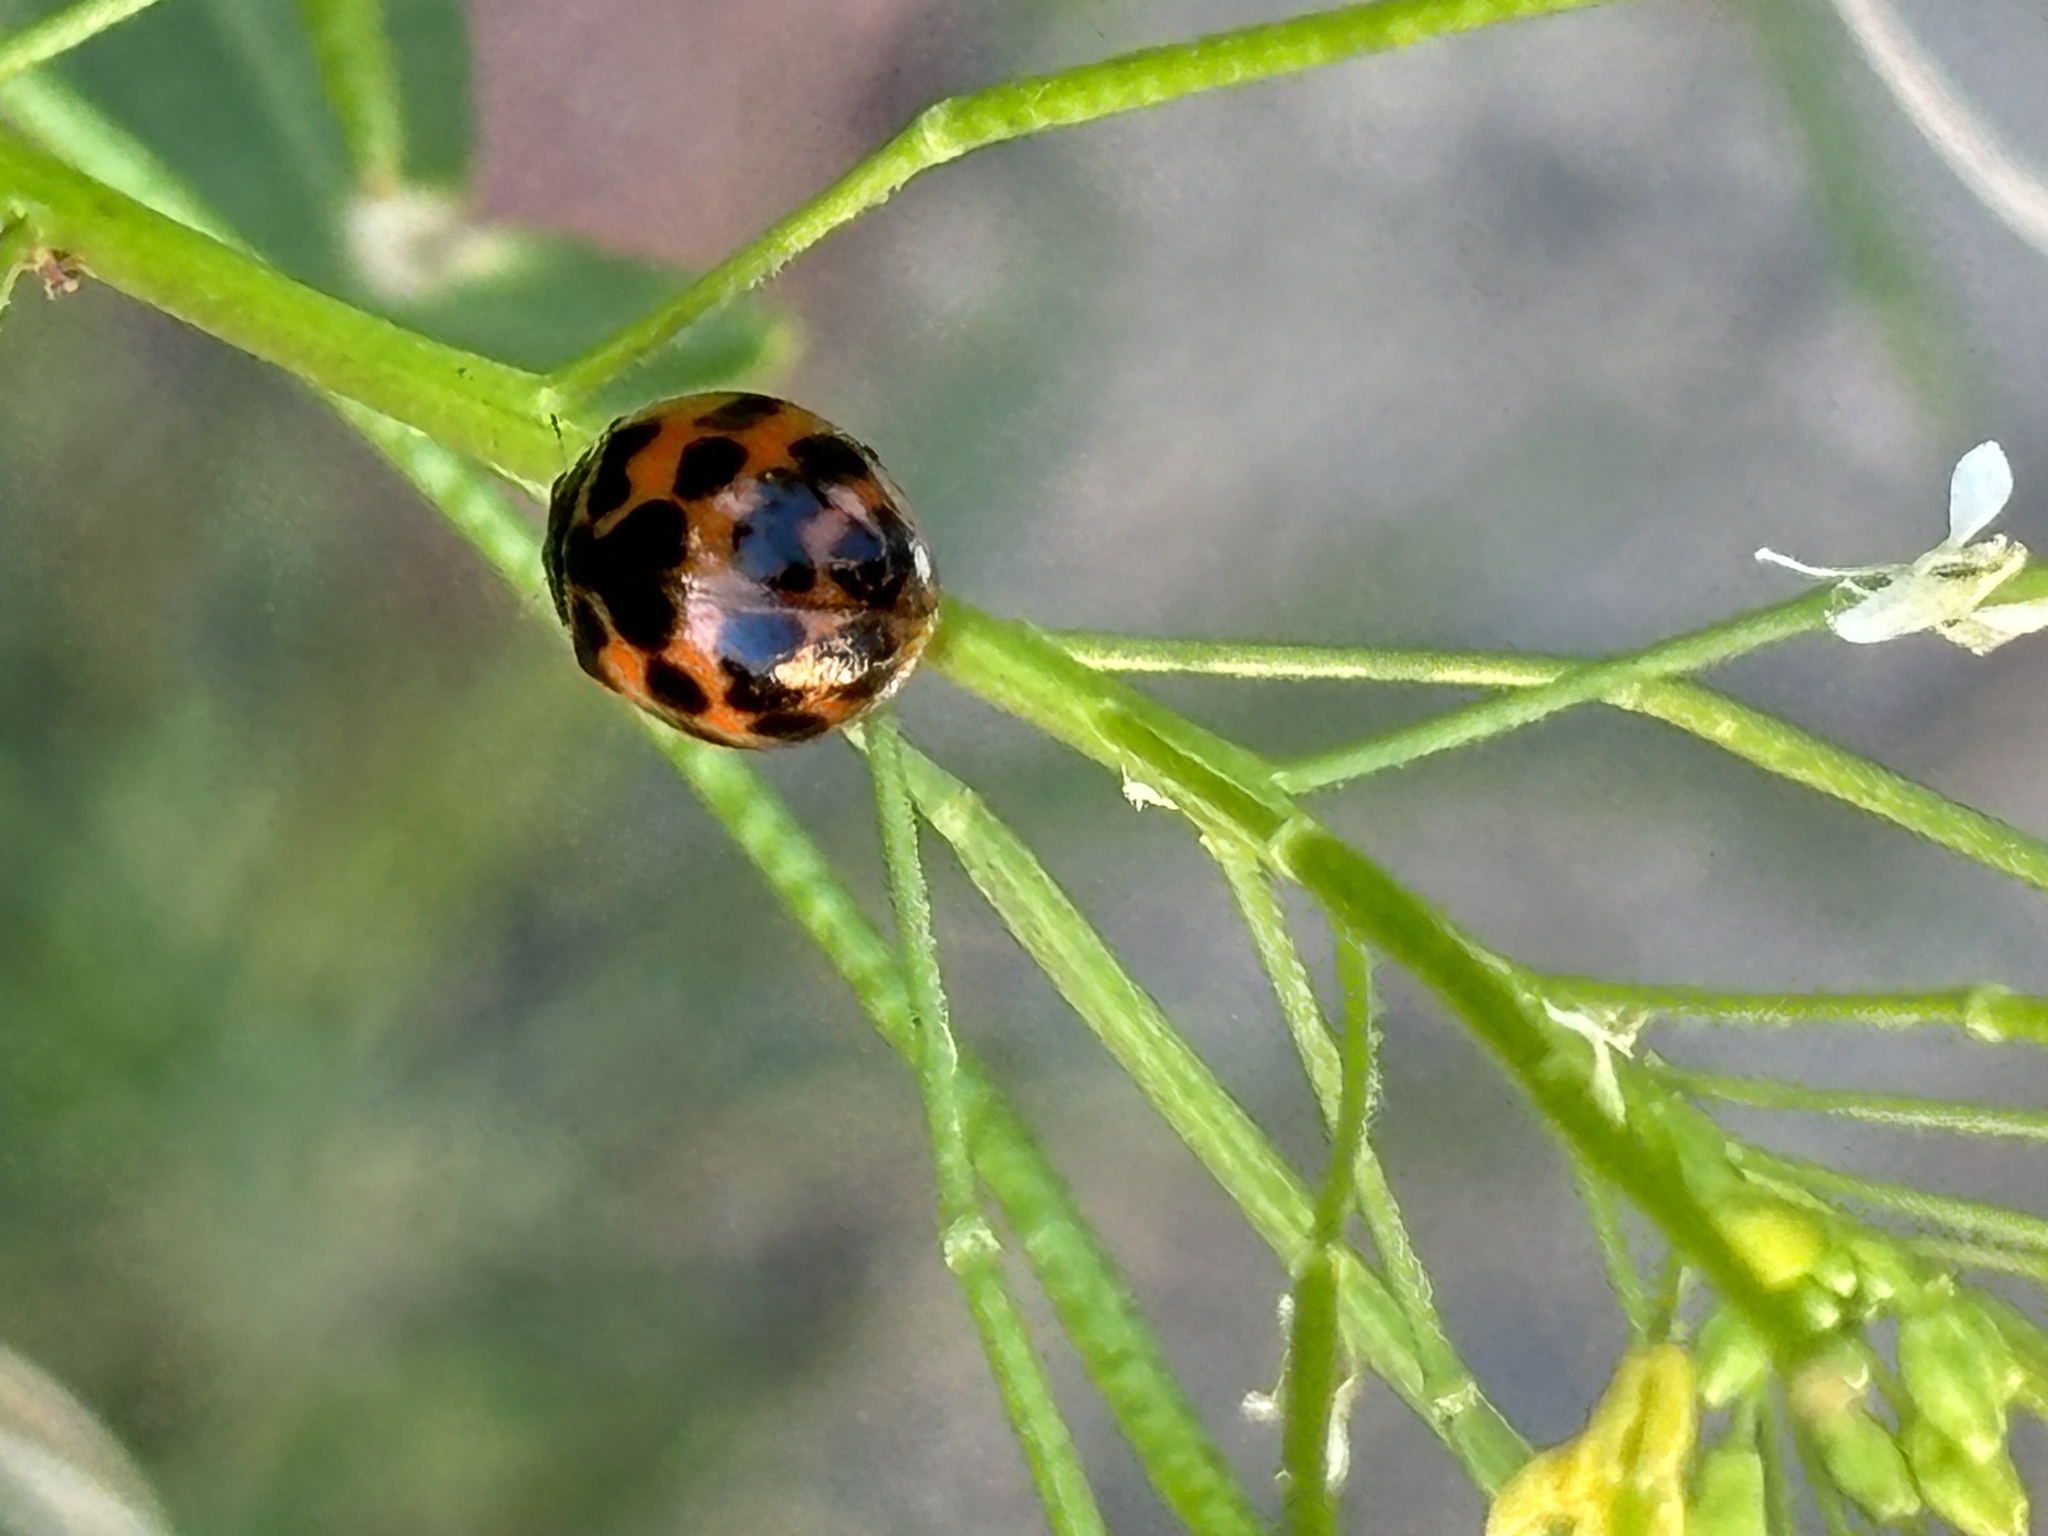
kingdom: Animalia
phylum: Arthropoda
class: Insecta
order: Coleoptera
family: Coccinellidae
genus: Harmonia
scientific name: Harmonia axyridis
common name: Harlequin ladybird
